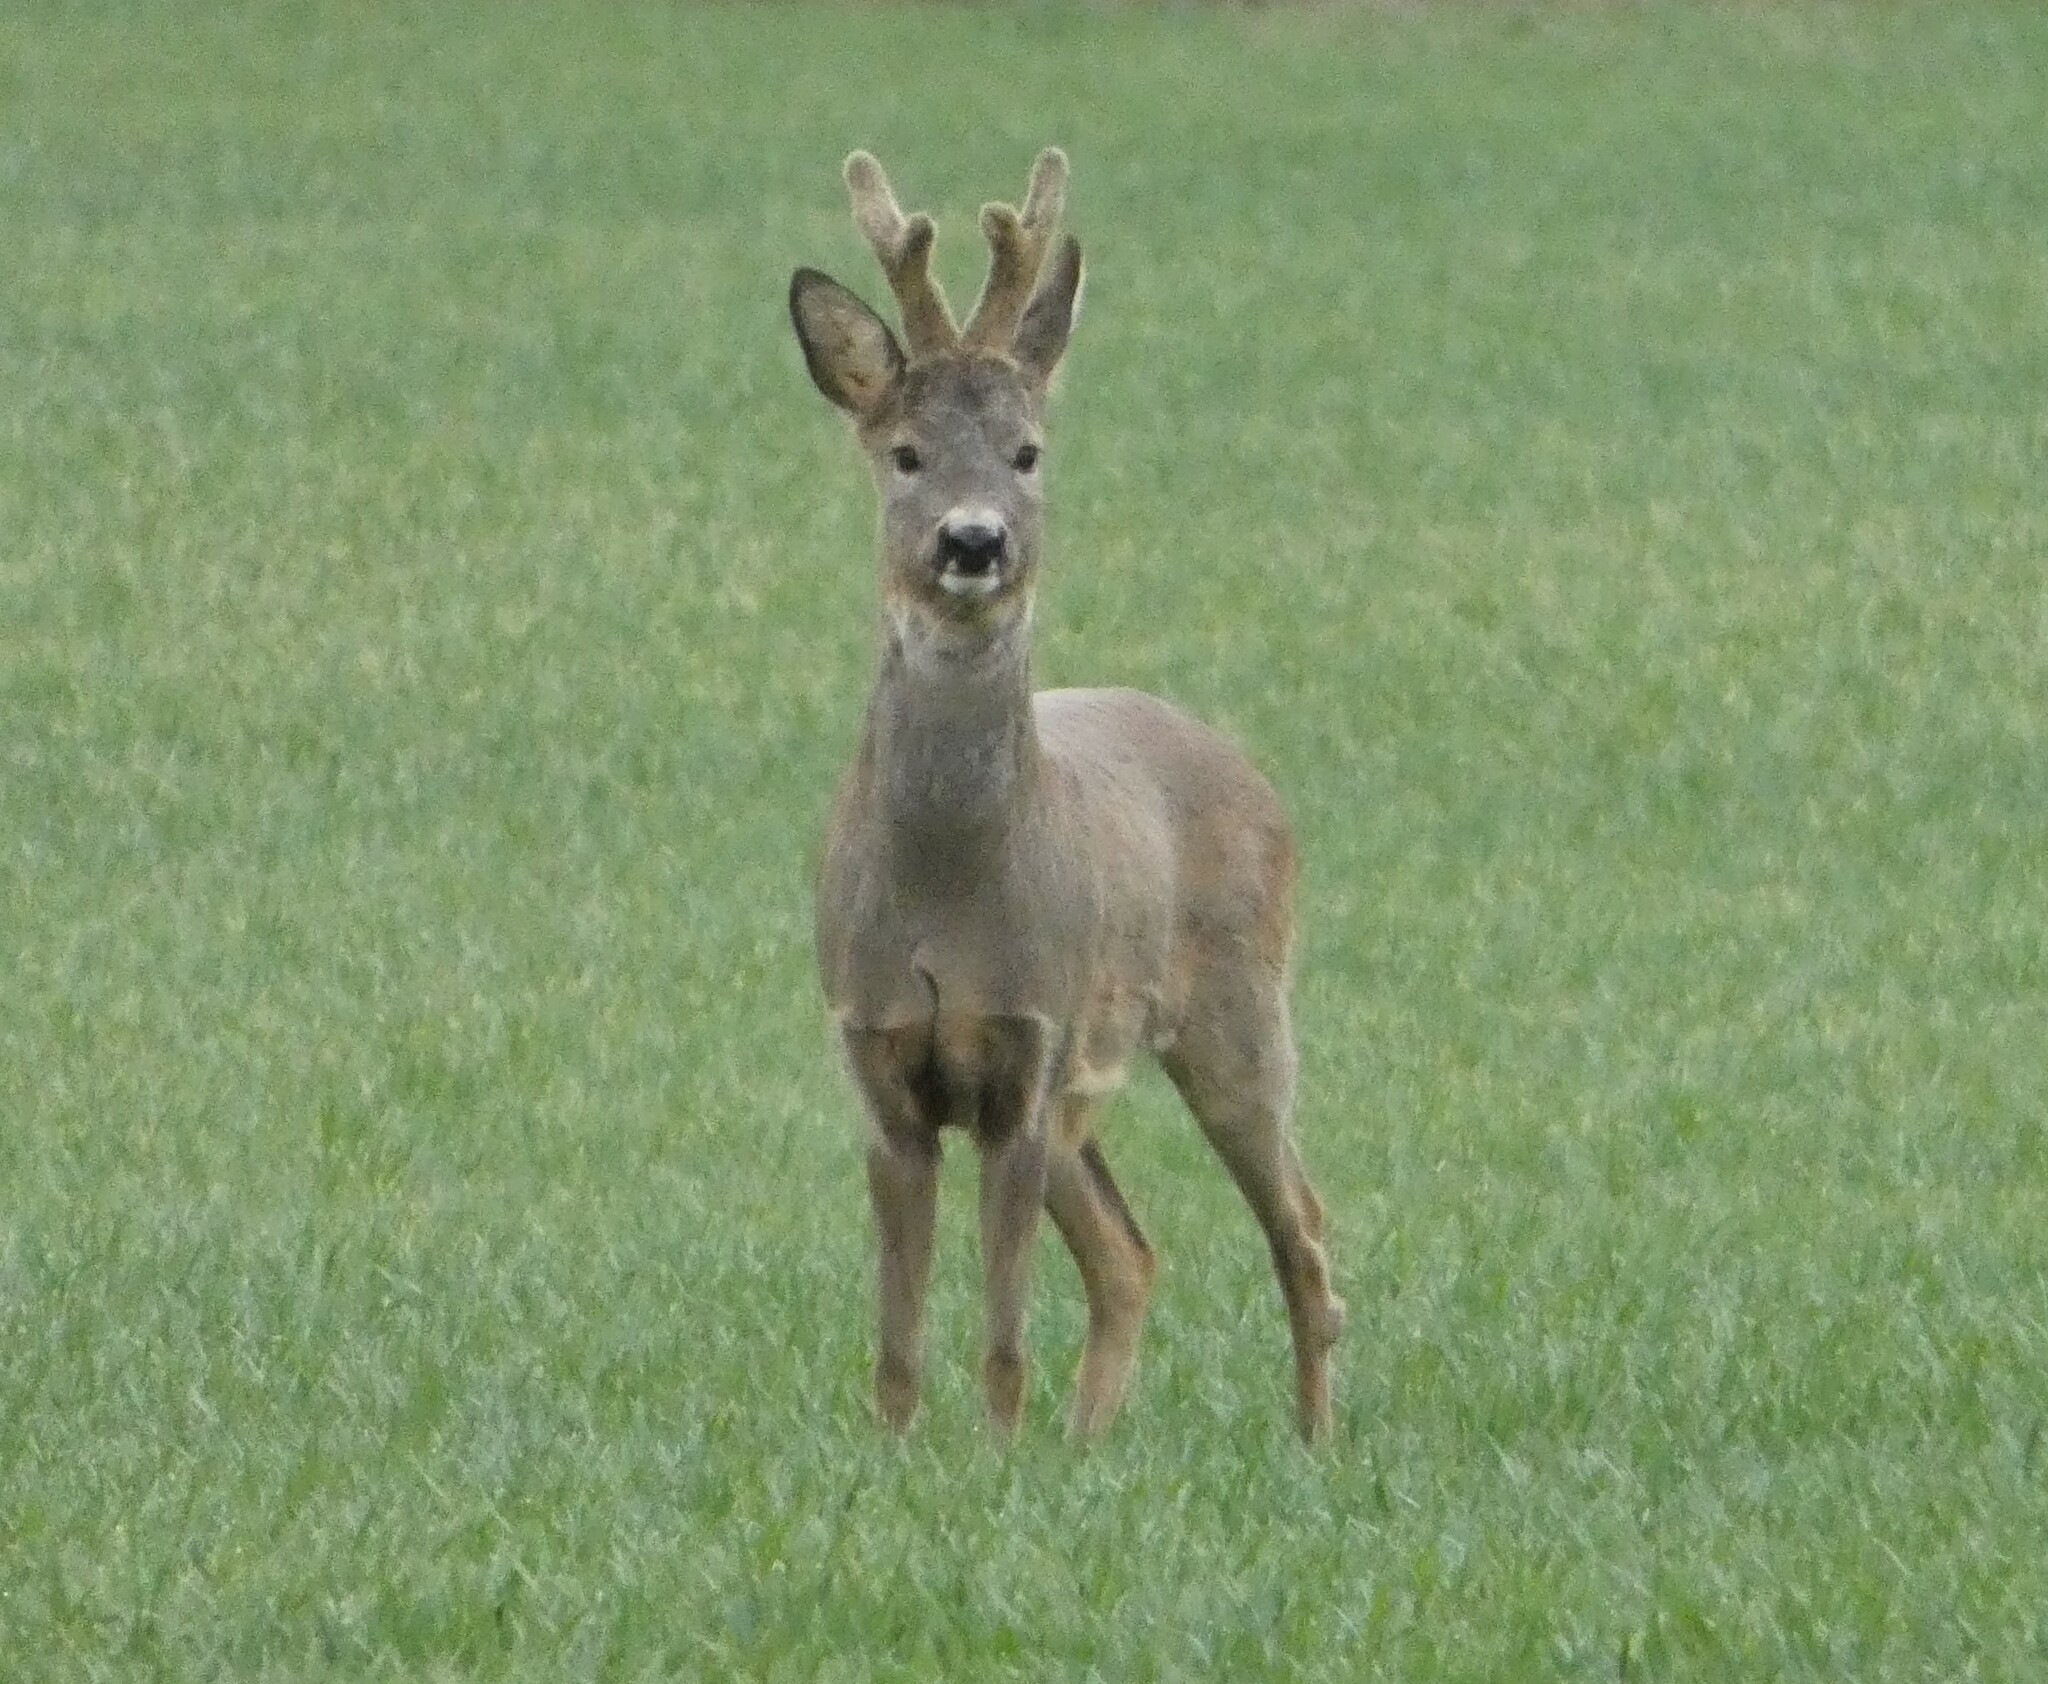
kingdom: Animalia
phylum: Chordata
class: Mammalia
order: Artiodactyla
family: Cervidae
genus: Capreolus
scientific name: Capreolus capreolus
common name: Western roe deer
